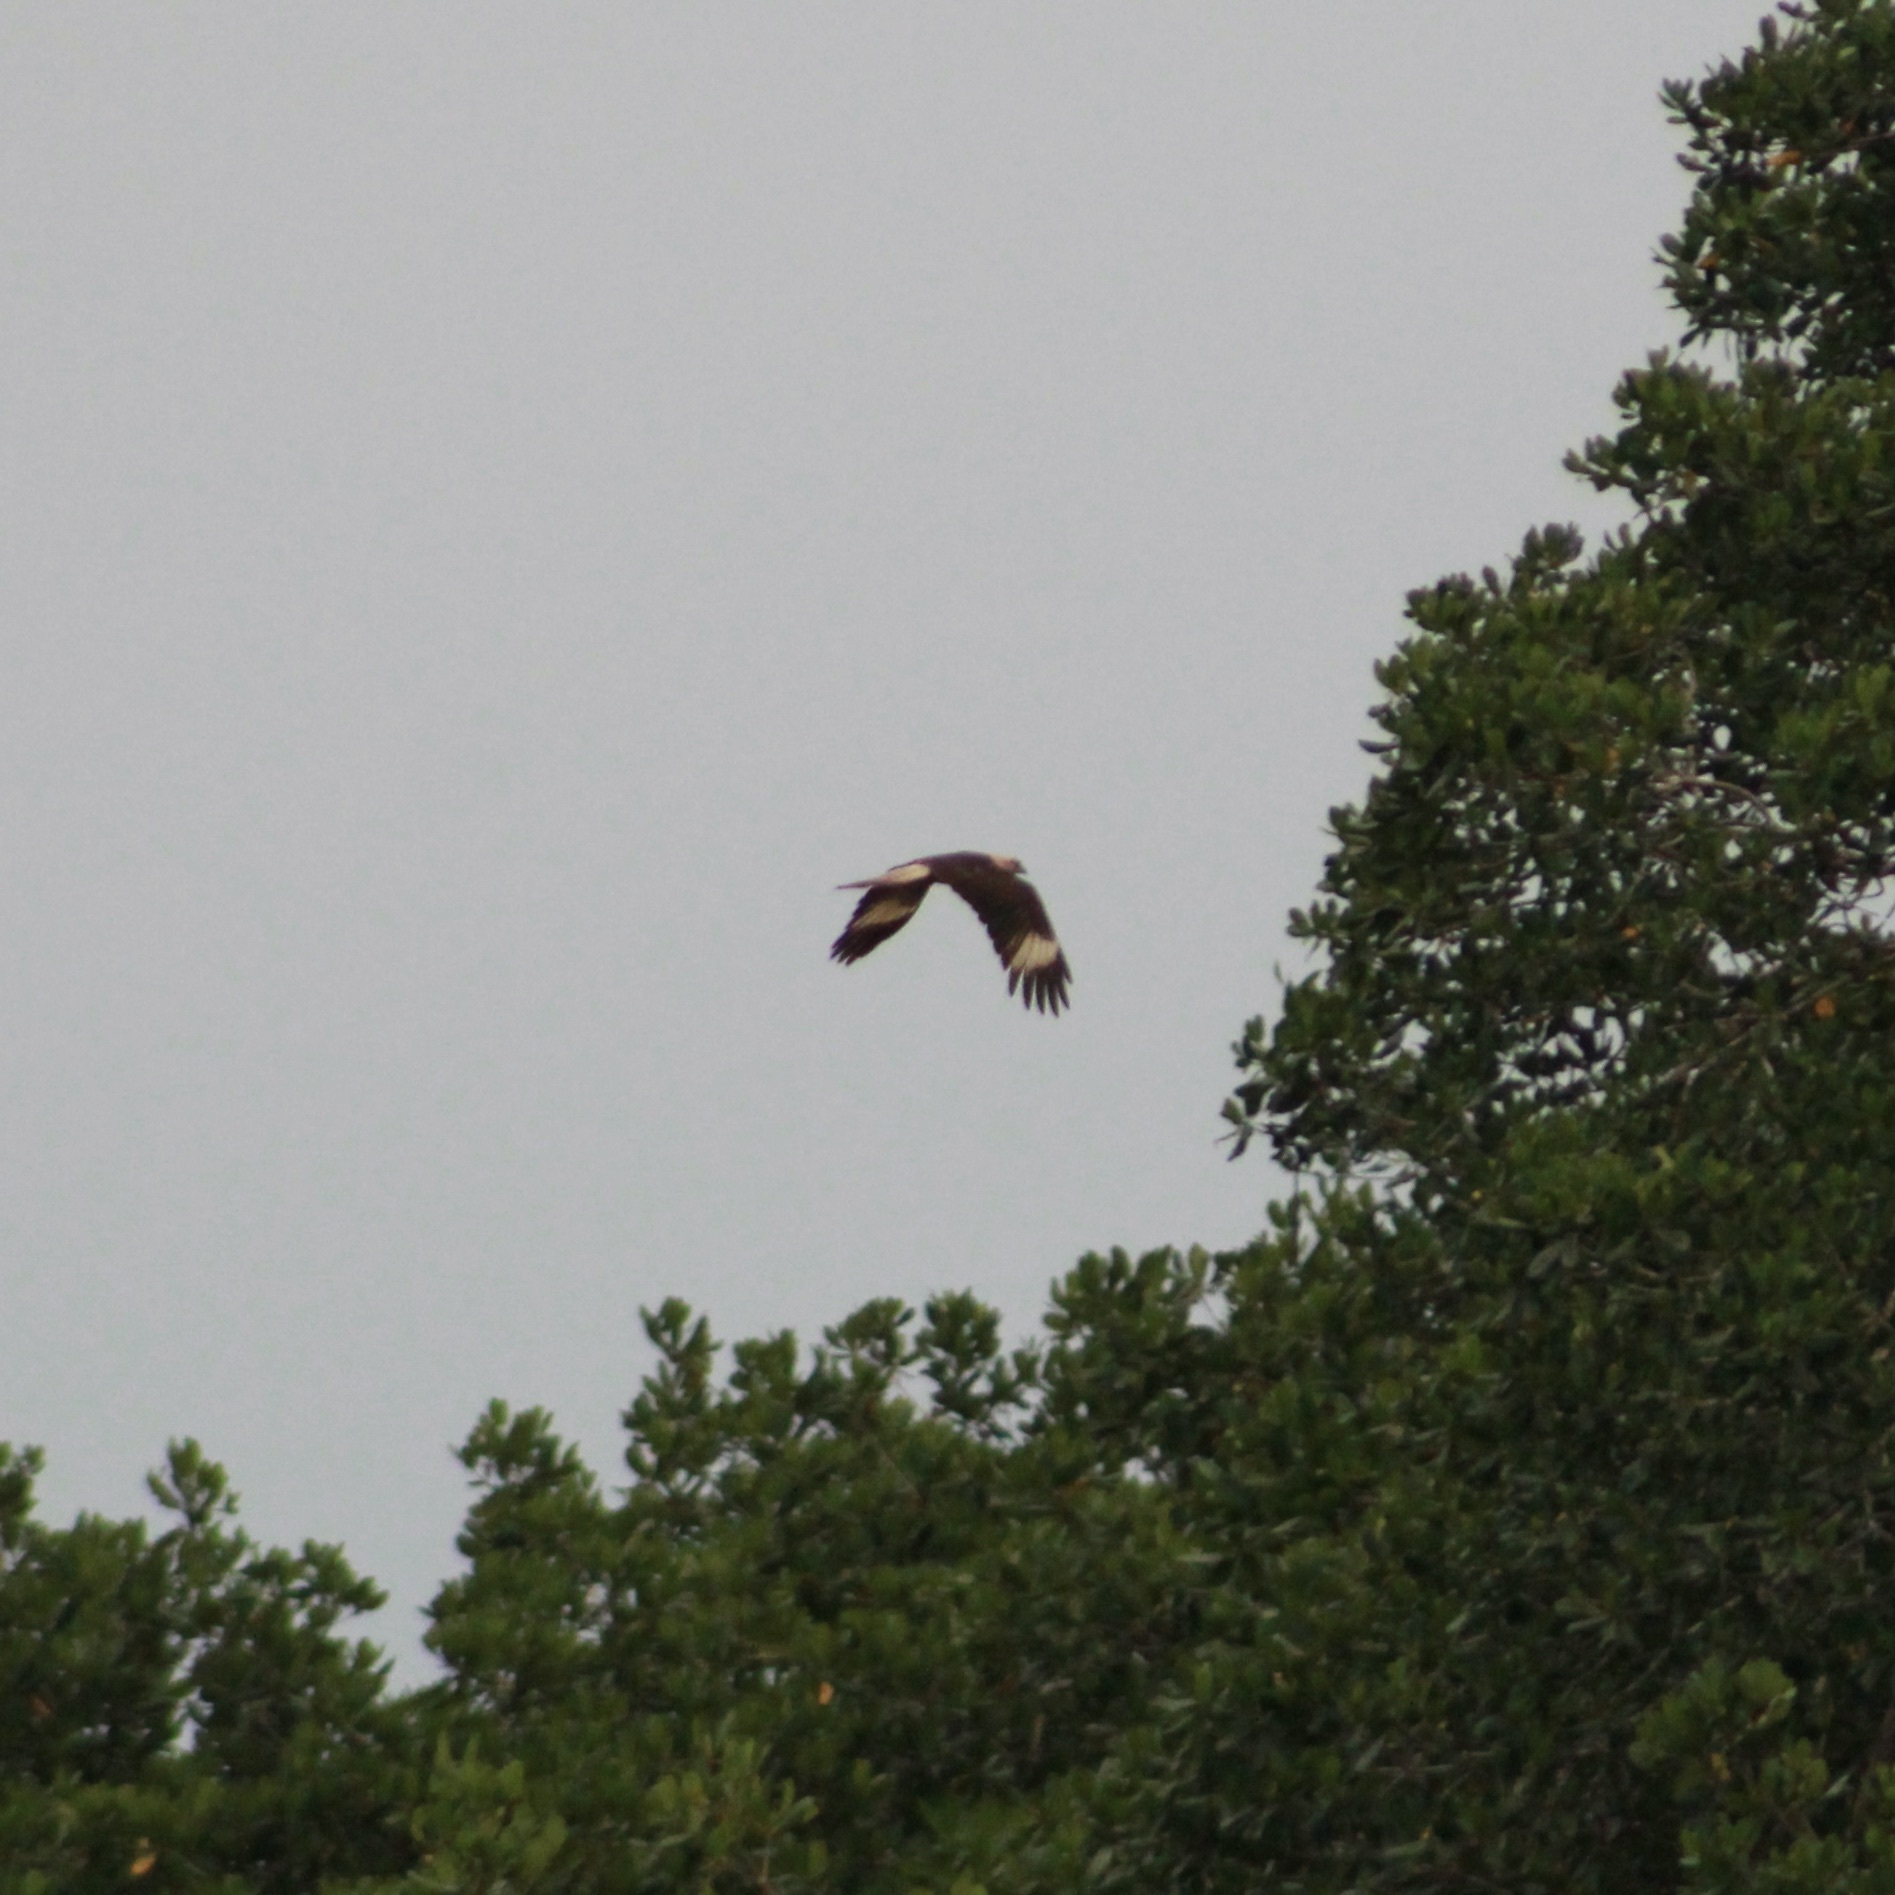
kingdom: Animalia
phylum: Chordata
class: Aves
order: Falconiformes
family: Falconidae
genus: Daptrius
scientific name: Daptrius
